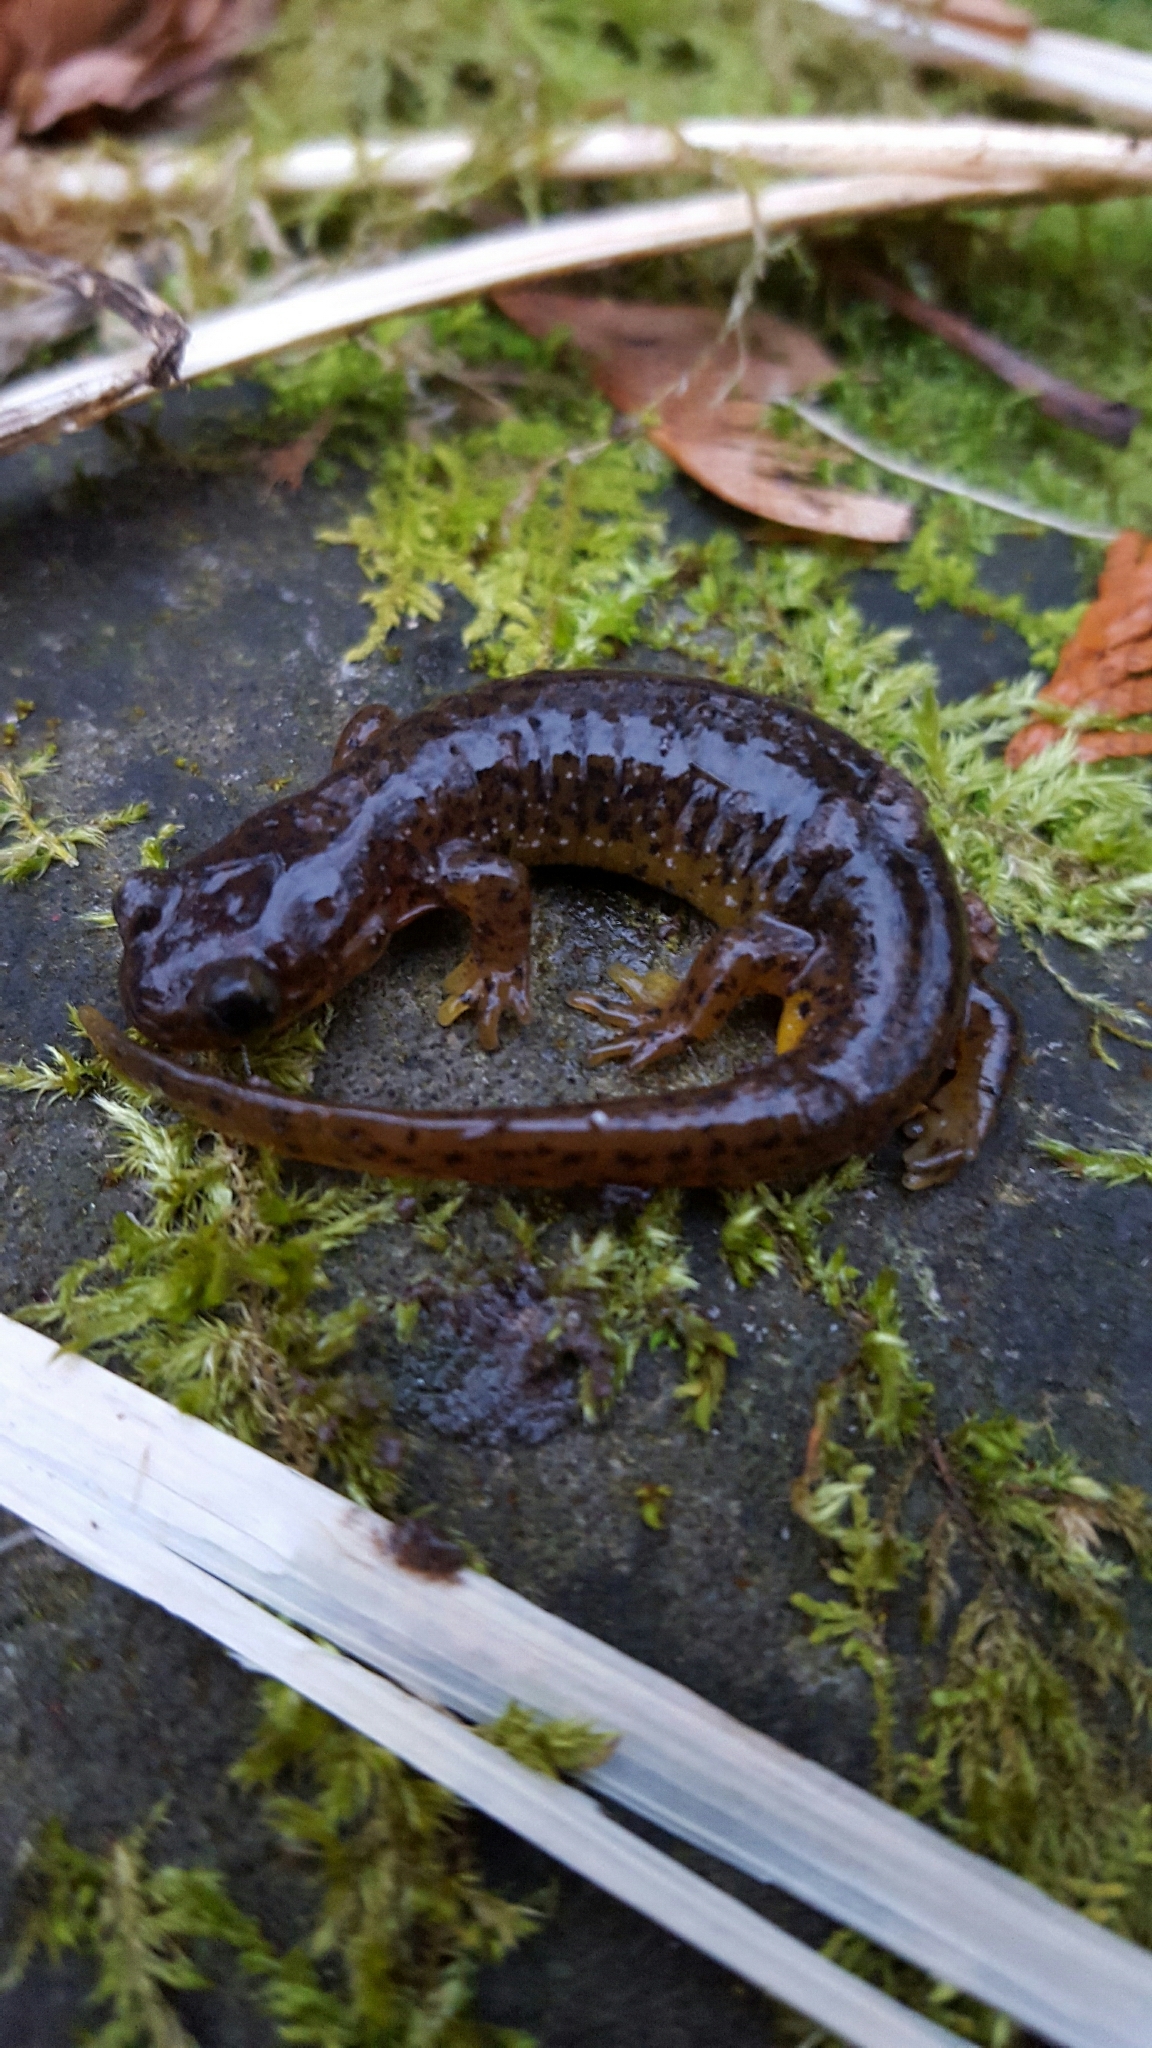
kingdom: Animalia
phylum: Chordata
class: Amphibia
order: Caudata
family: Rhyacotritonidae
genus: Rhyacotriton
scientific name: Rhyacotriton cascadae
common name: Cascade torrent salamander
